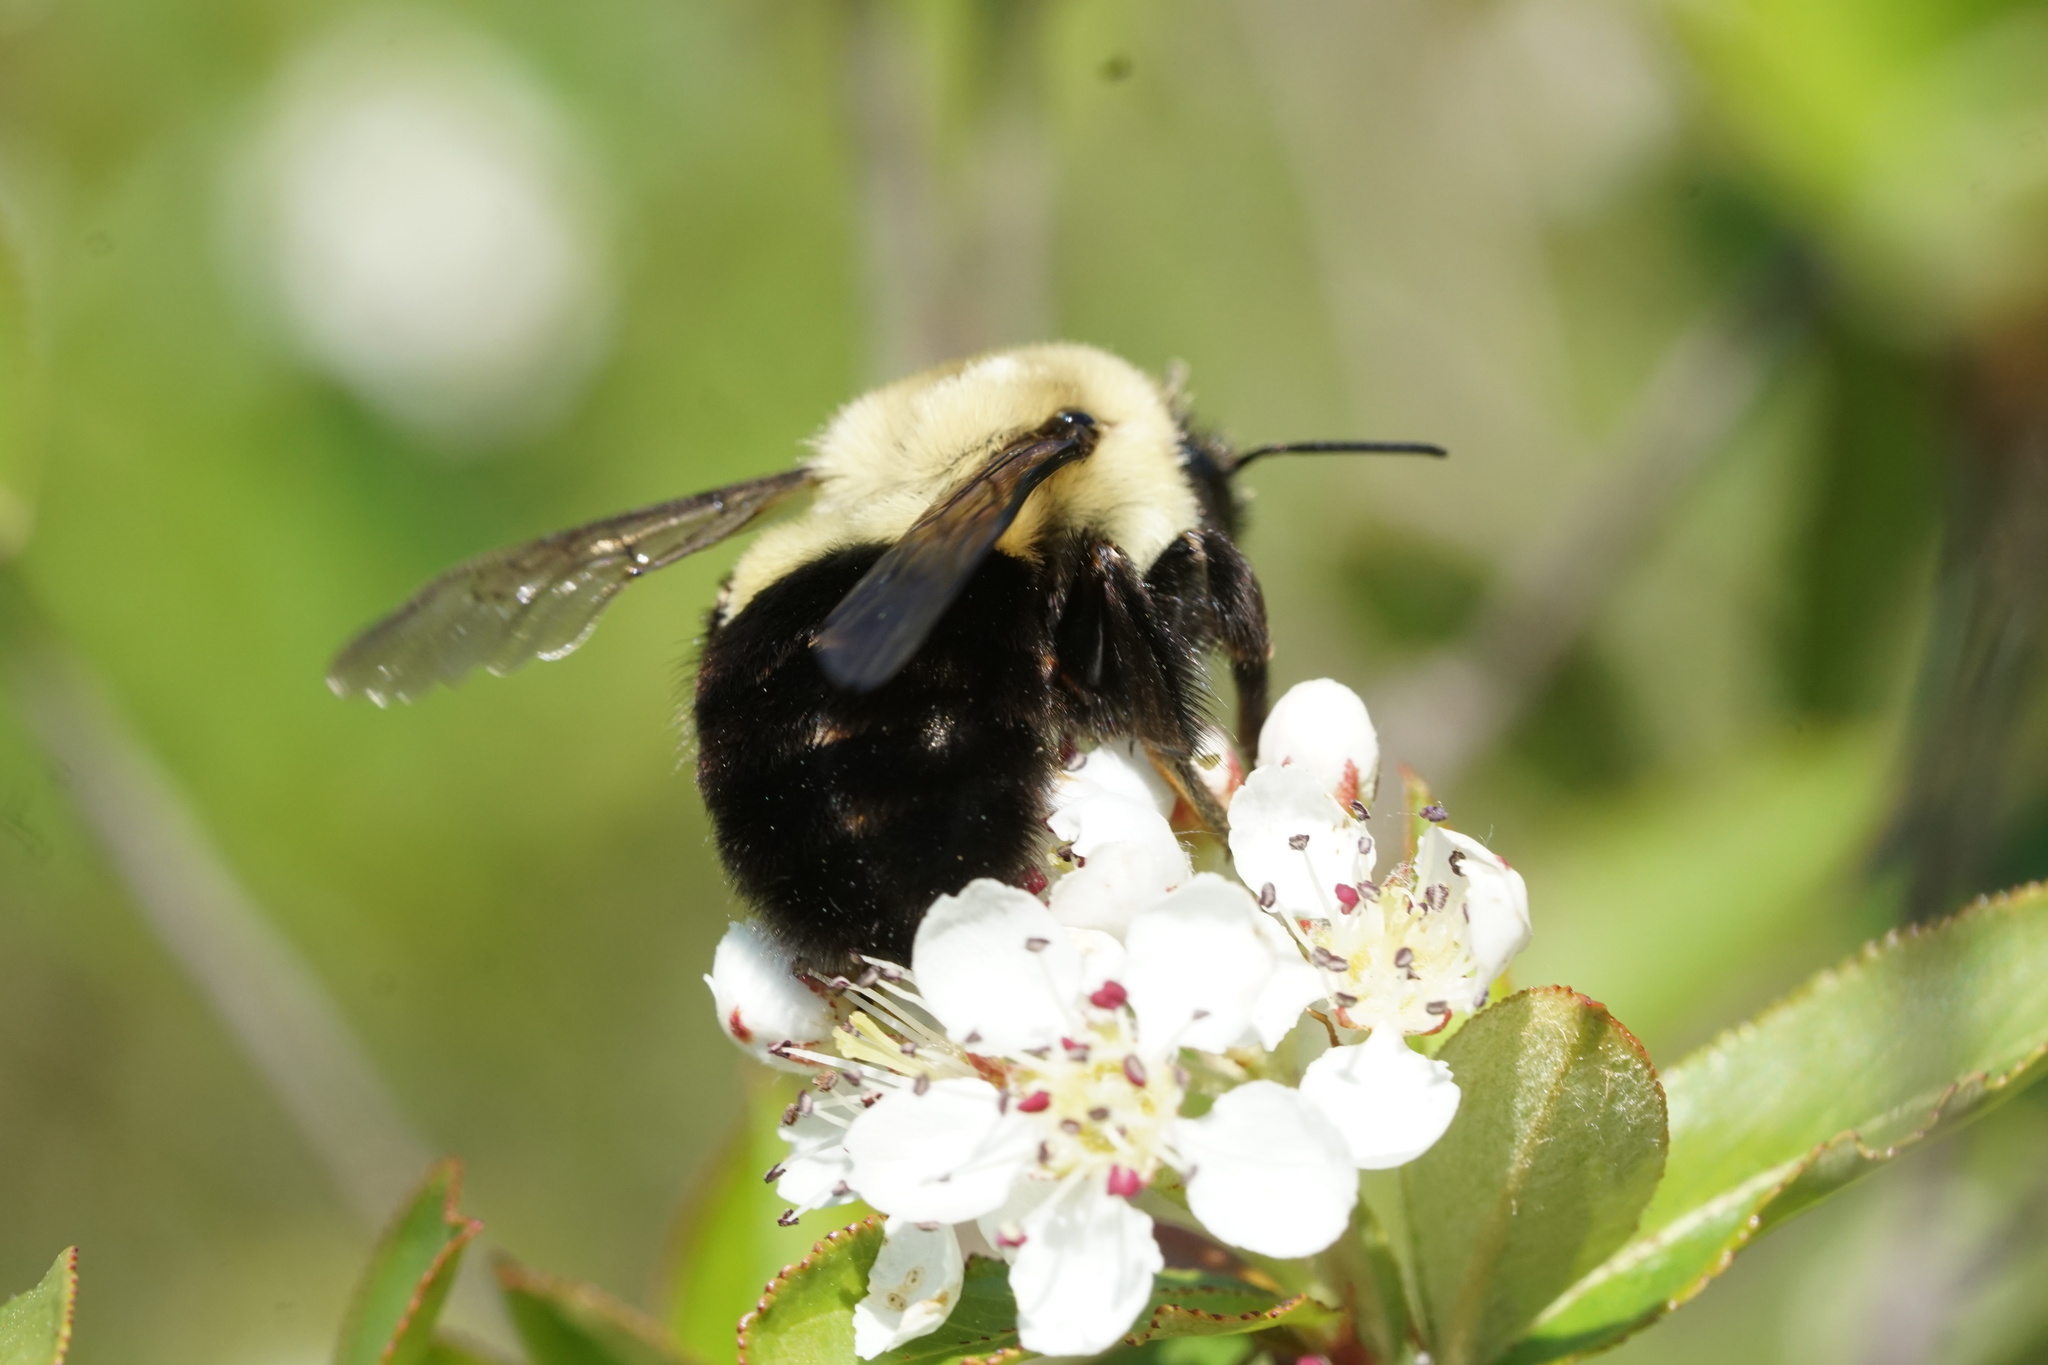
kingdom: Animalia
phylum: Arthropoda
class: Insecta
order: Hymenoptera
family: Apidae
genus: Bombus
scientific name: Bombus impatiens
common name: Common eastern bumble bee
